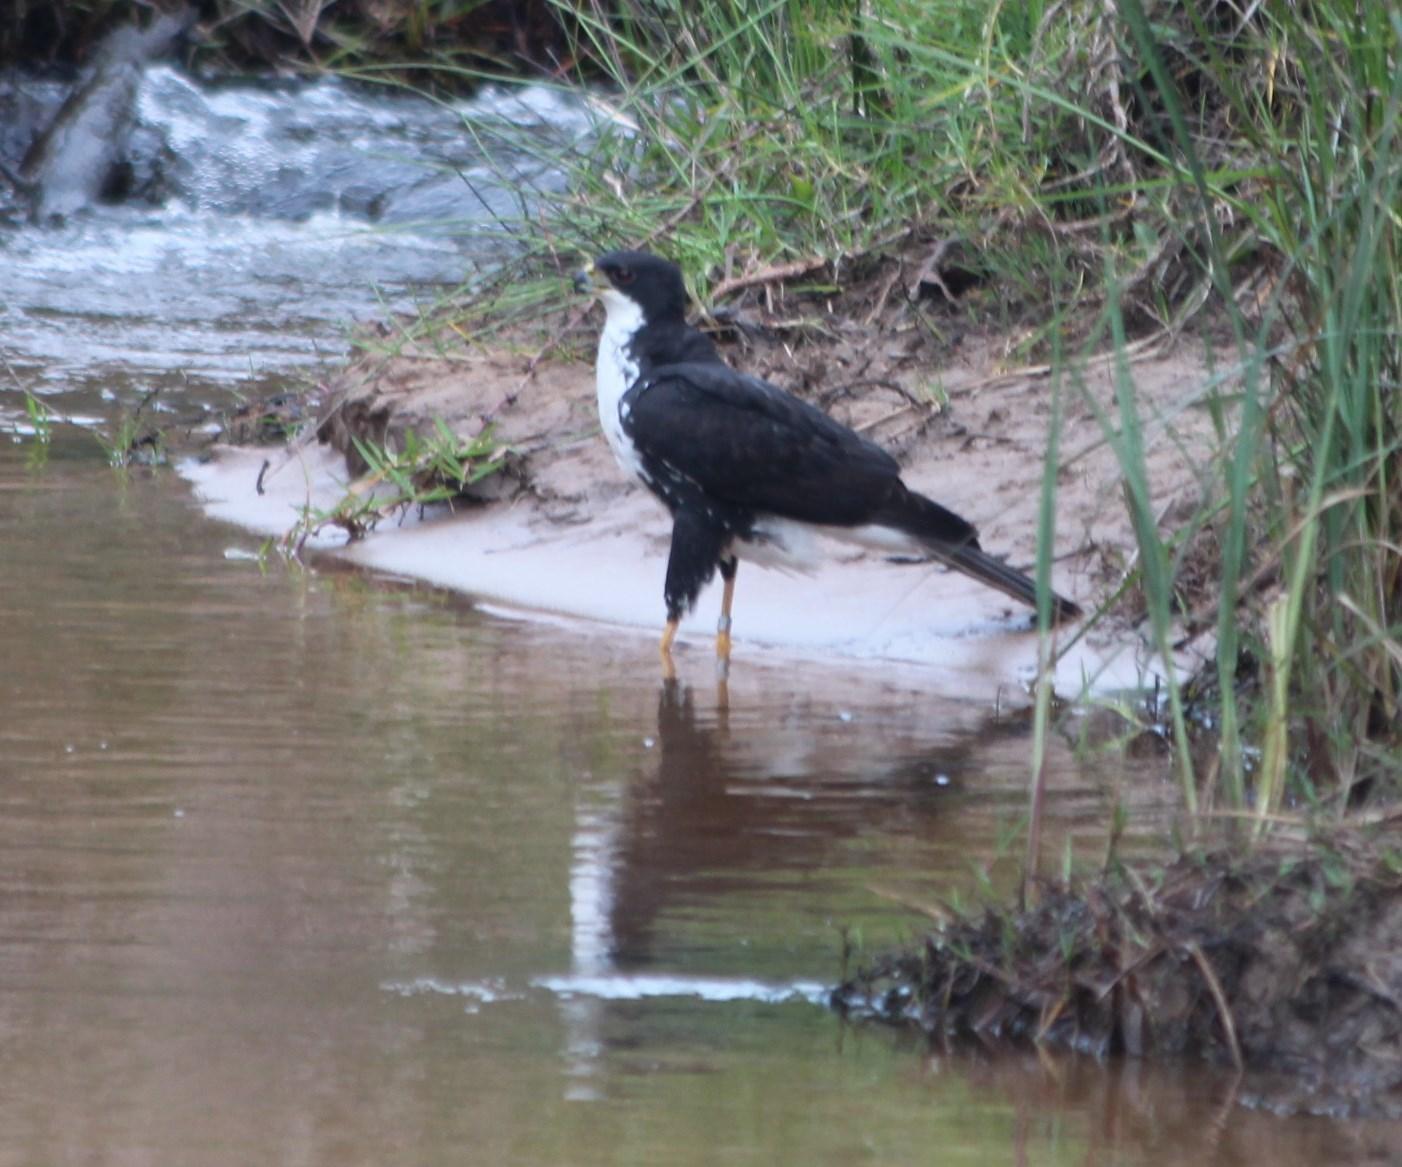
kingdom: Animalia
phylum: Chordata
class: Aves
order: Accipitriformes
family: Accipitridae
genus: Accipiter
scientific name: Accipiter melanoleucus
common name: Black sparrowhawk
